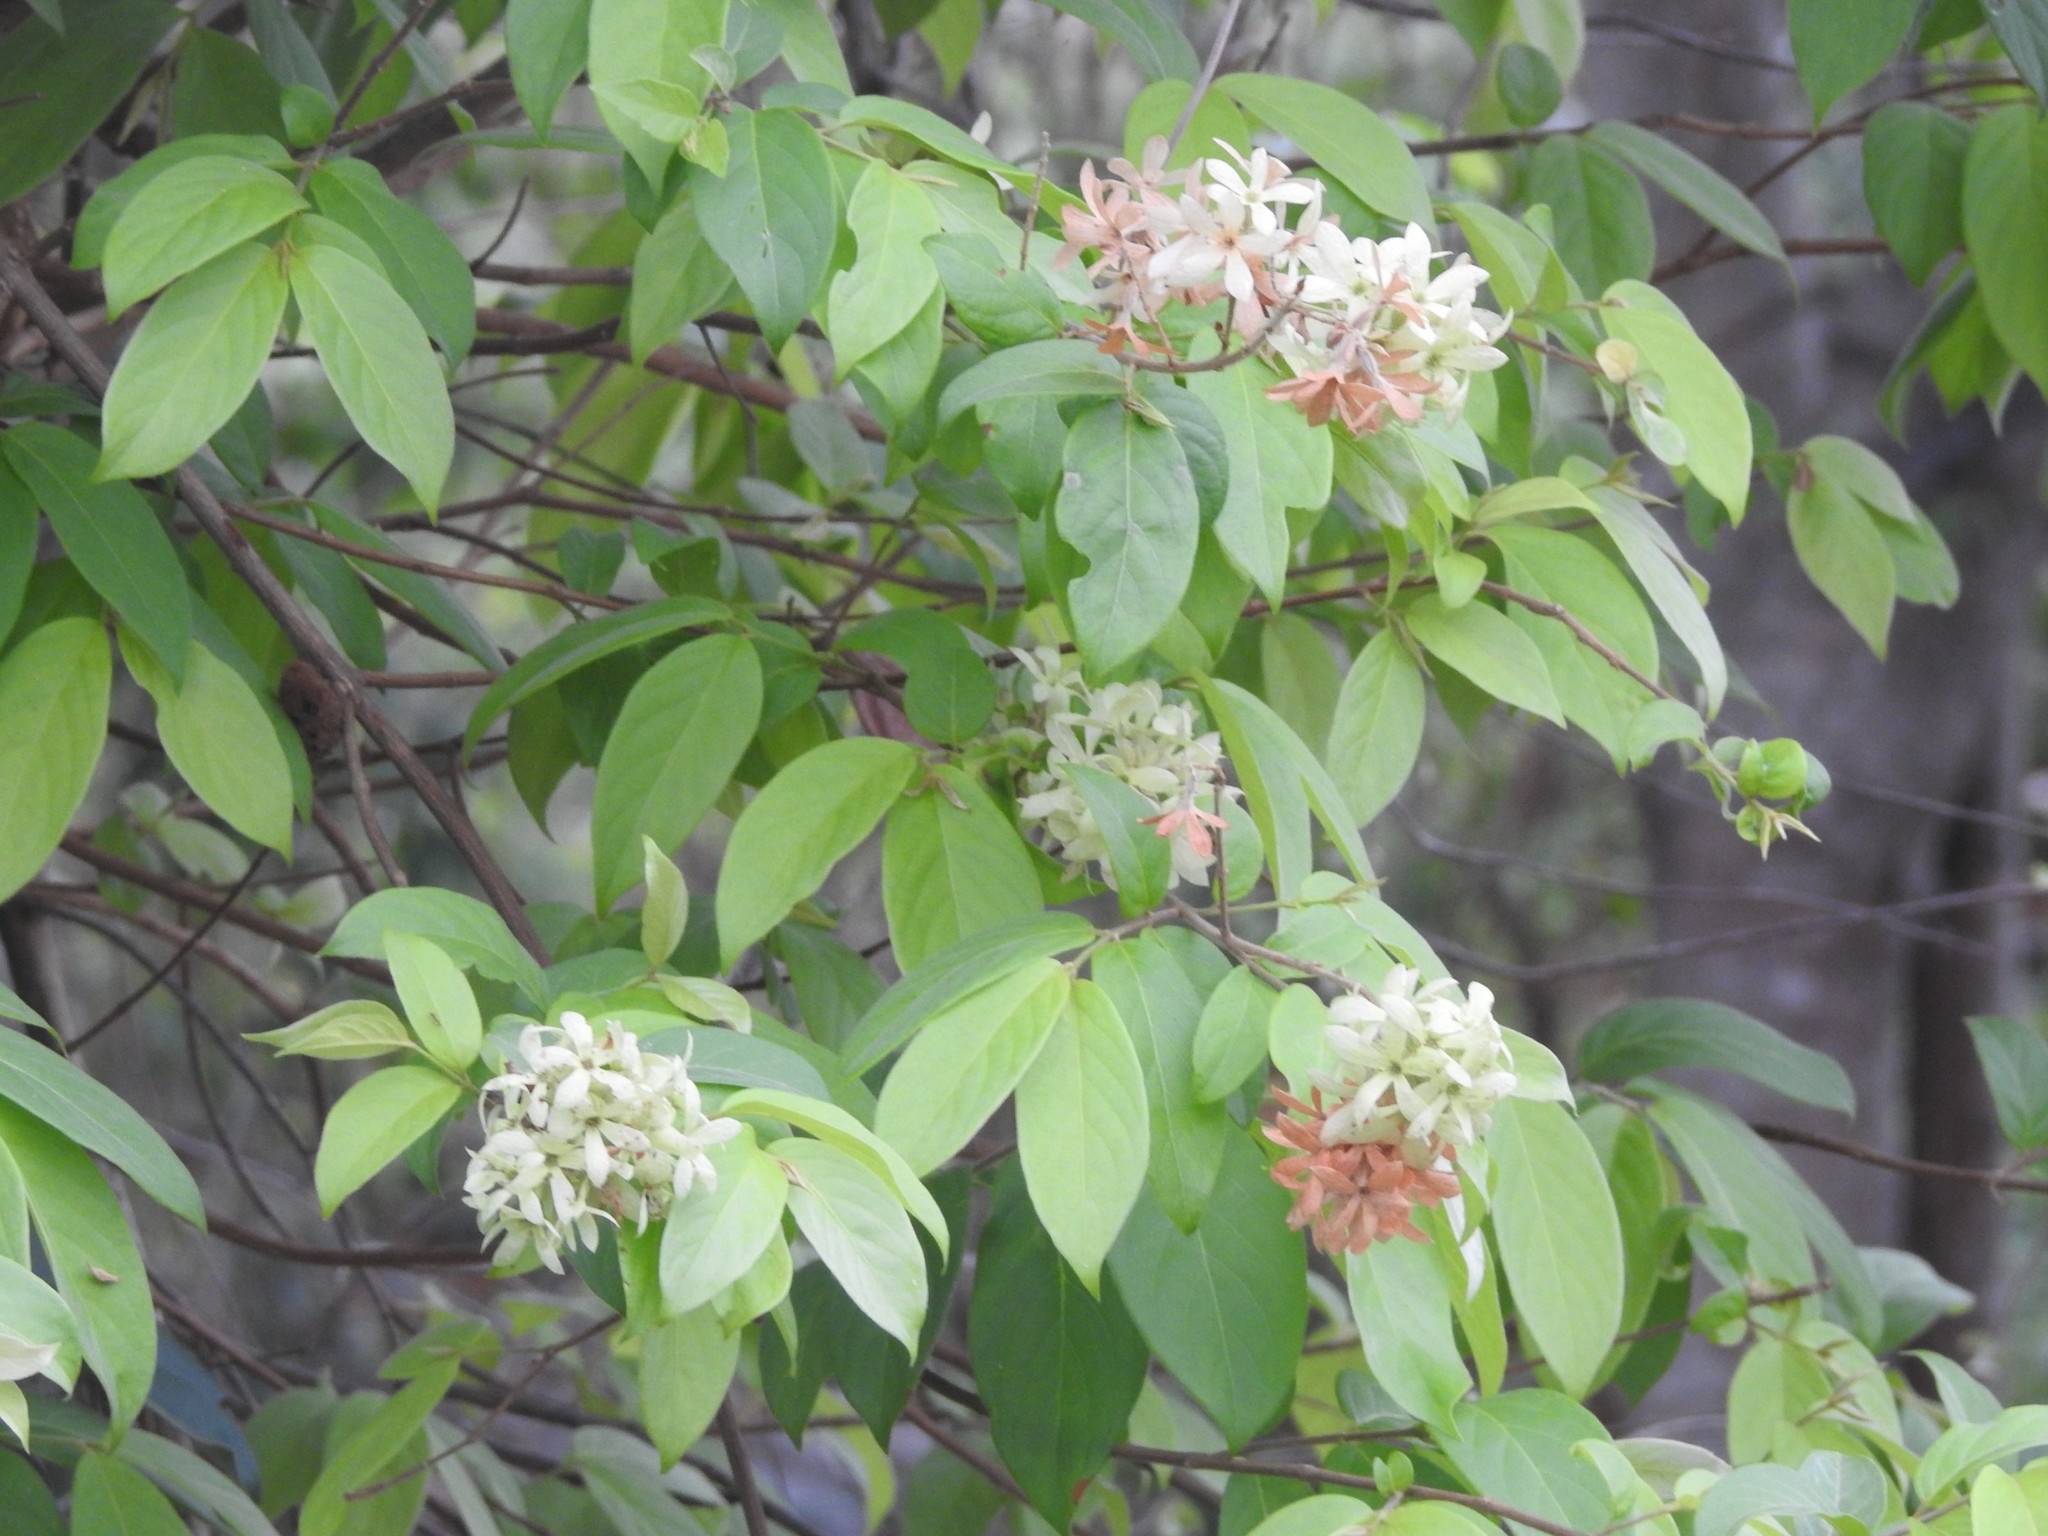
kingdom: Plantae
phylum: Tracheophyta
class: Magnoliopsida
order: Myrtales
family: Combretaceae
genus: Getonia
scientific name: Getonia floribunda
